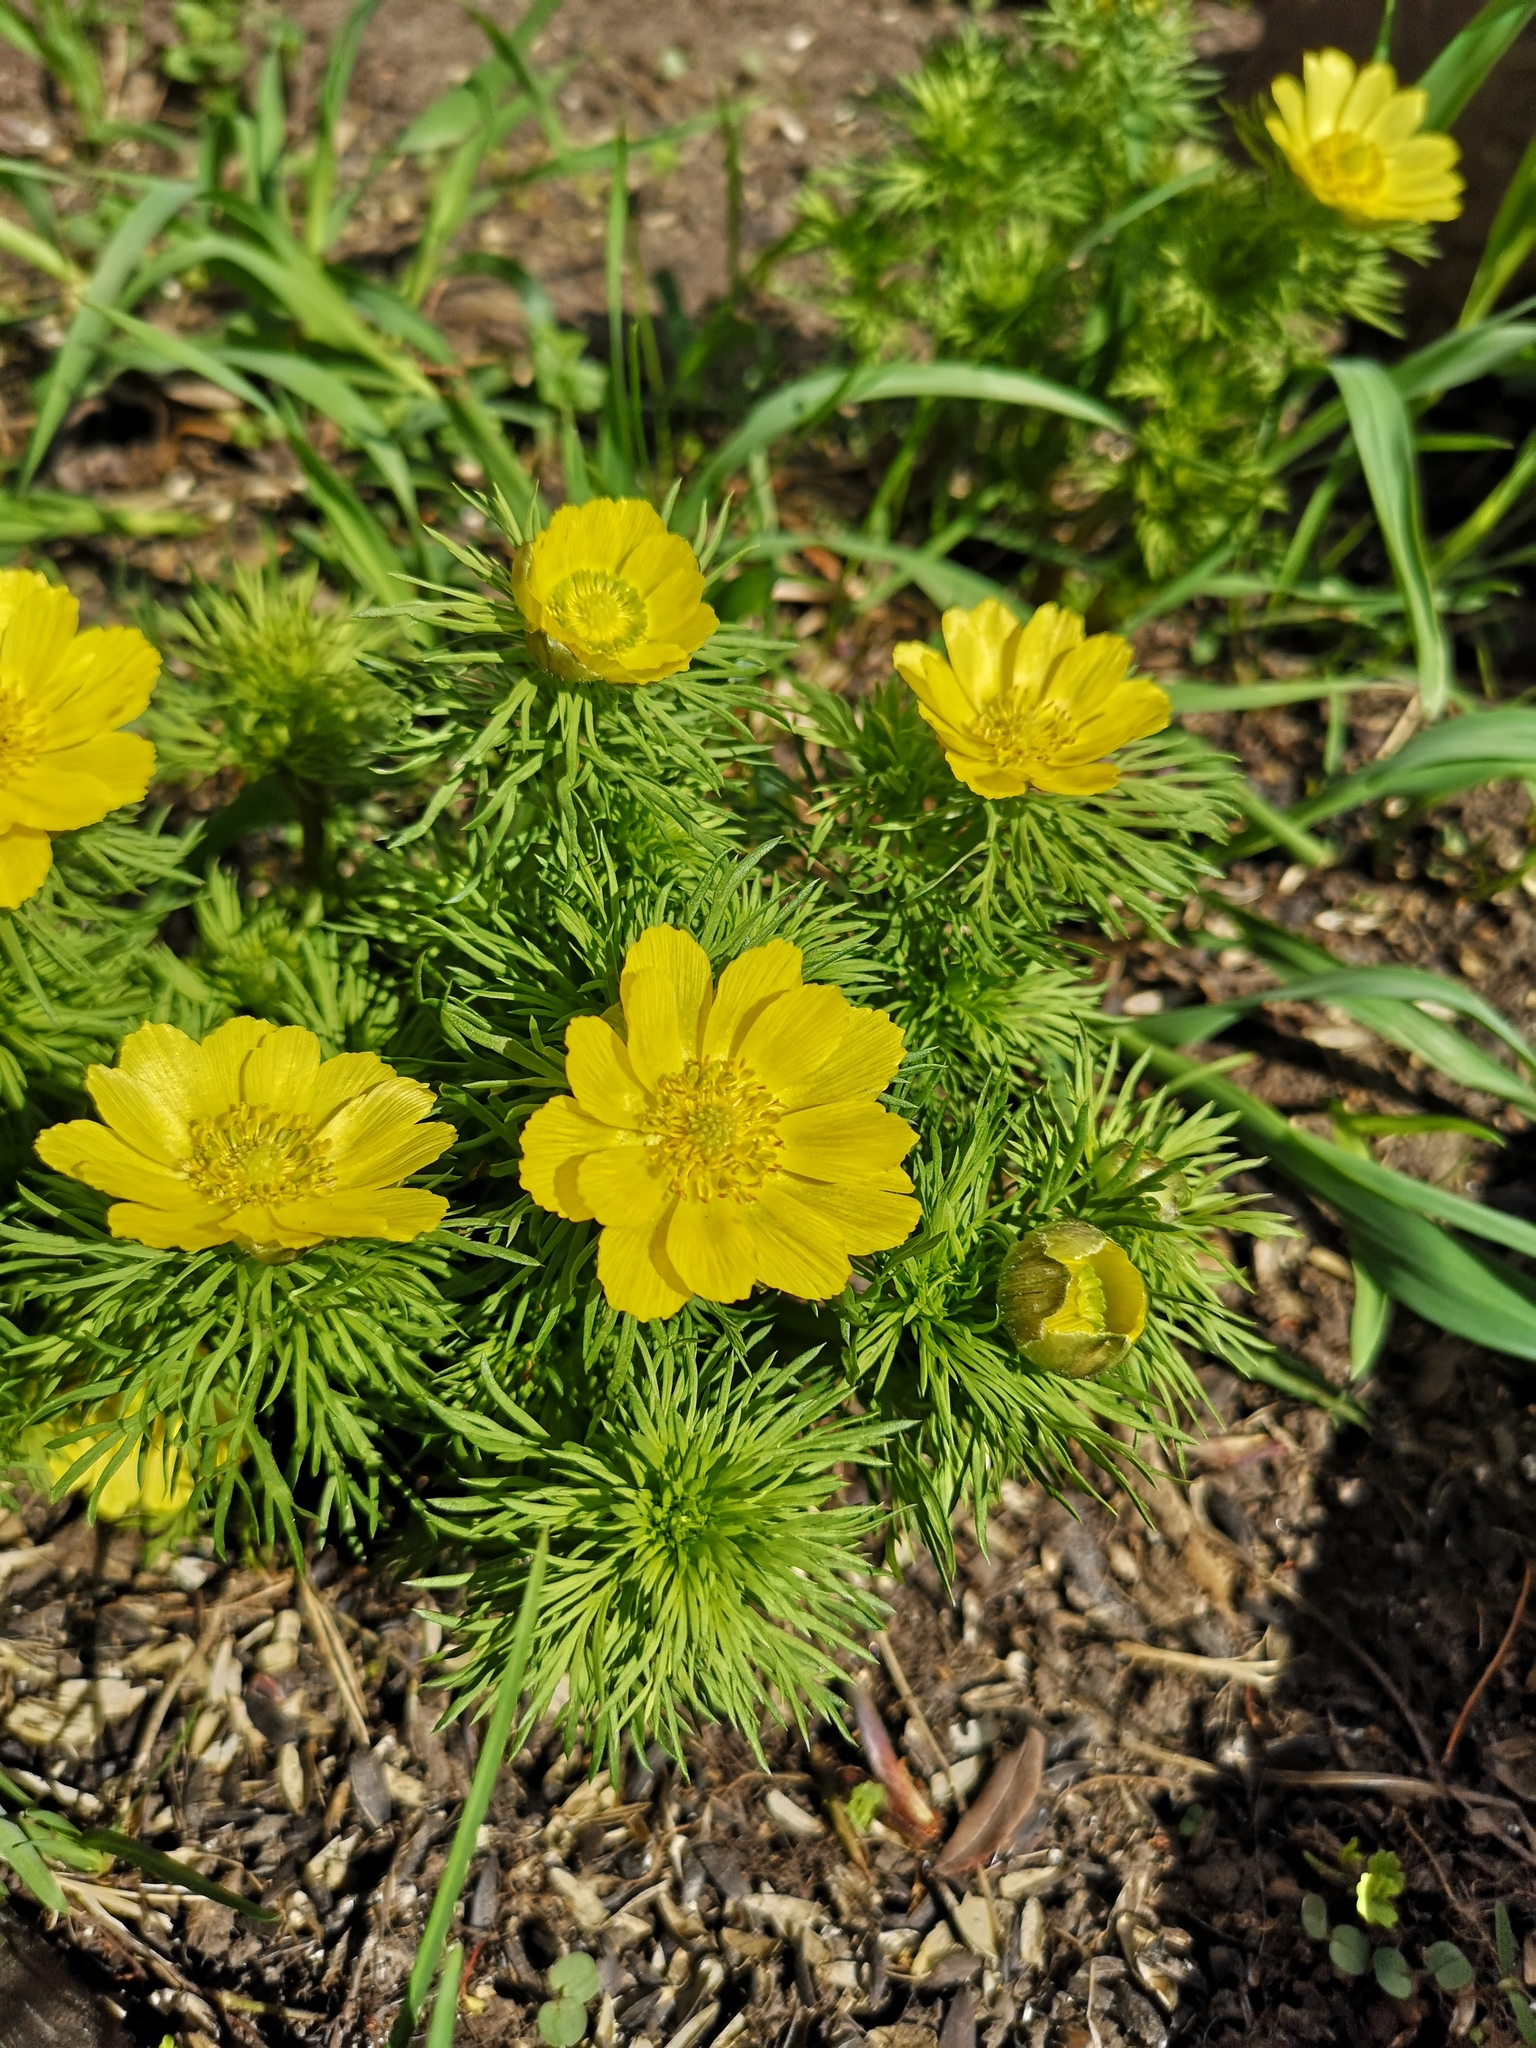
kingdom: Plantae
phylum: Tracheophyta
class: Magnoliopsida
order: Ranunculales
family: Ranunculaceae
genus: Adonis
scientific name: Adonis vernalis
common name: Yellow pheasants-eye
